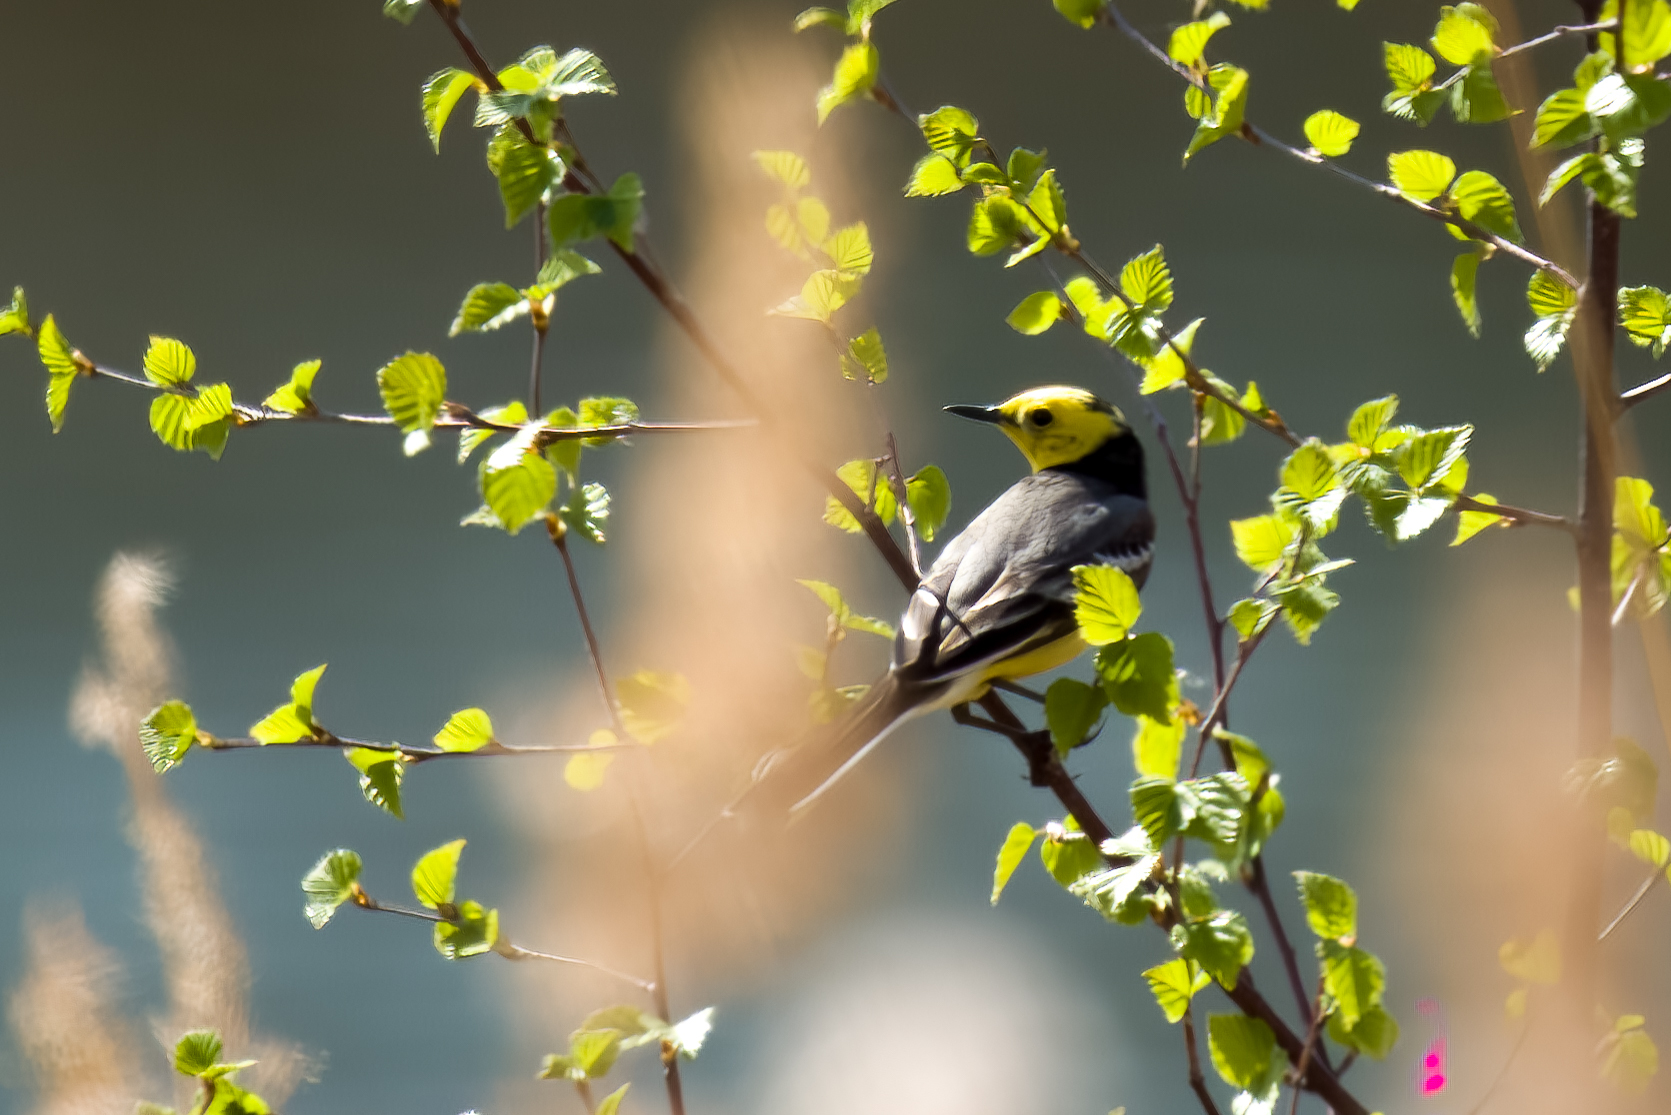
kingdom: Animalia
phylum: Chordata
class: Aves
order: Passeriformes
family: Motacillidae
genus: Motacilla
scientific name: Motacilla citreola
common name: Citrine wagtail
